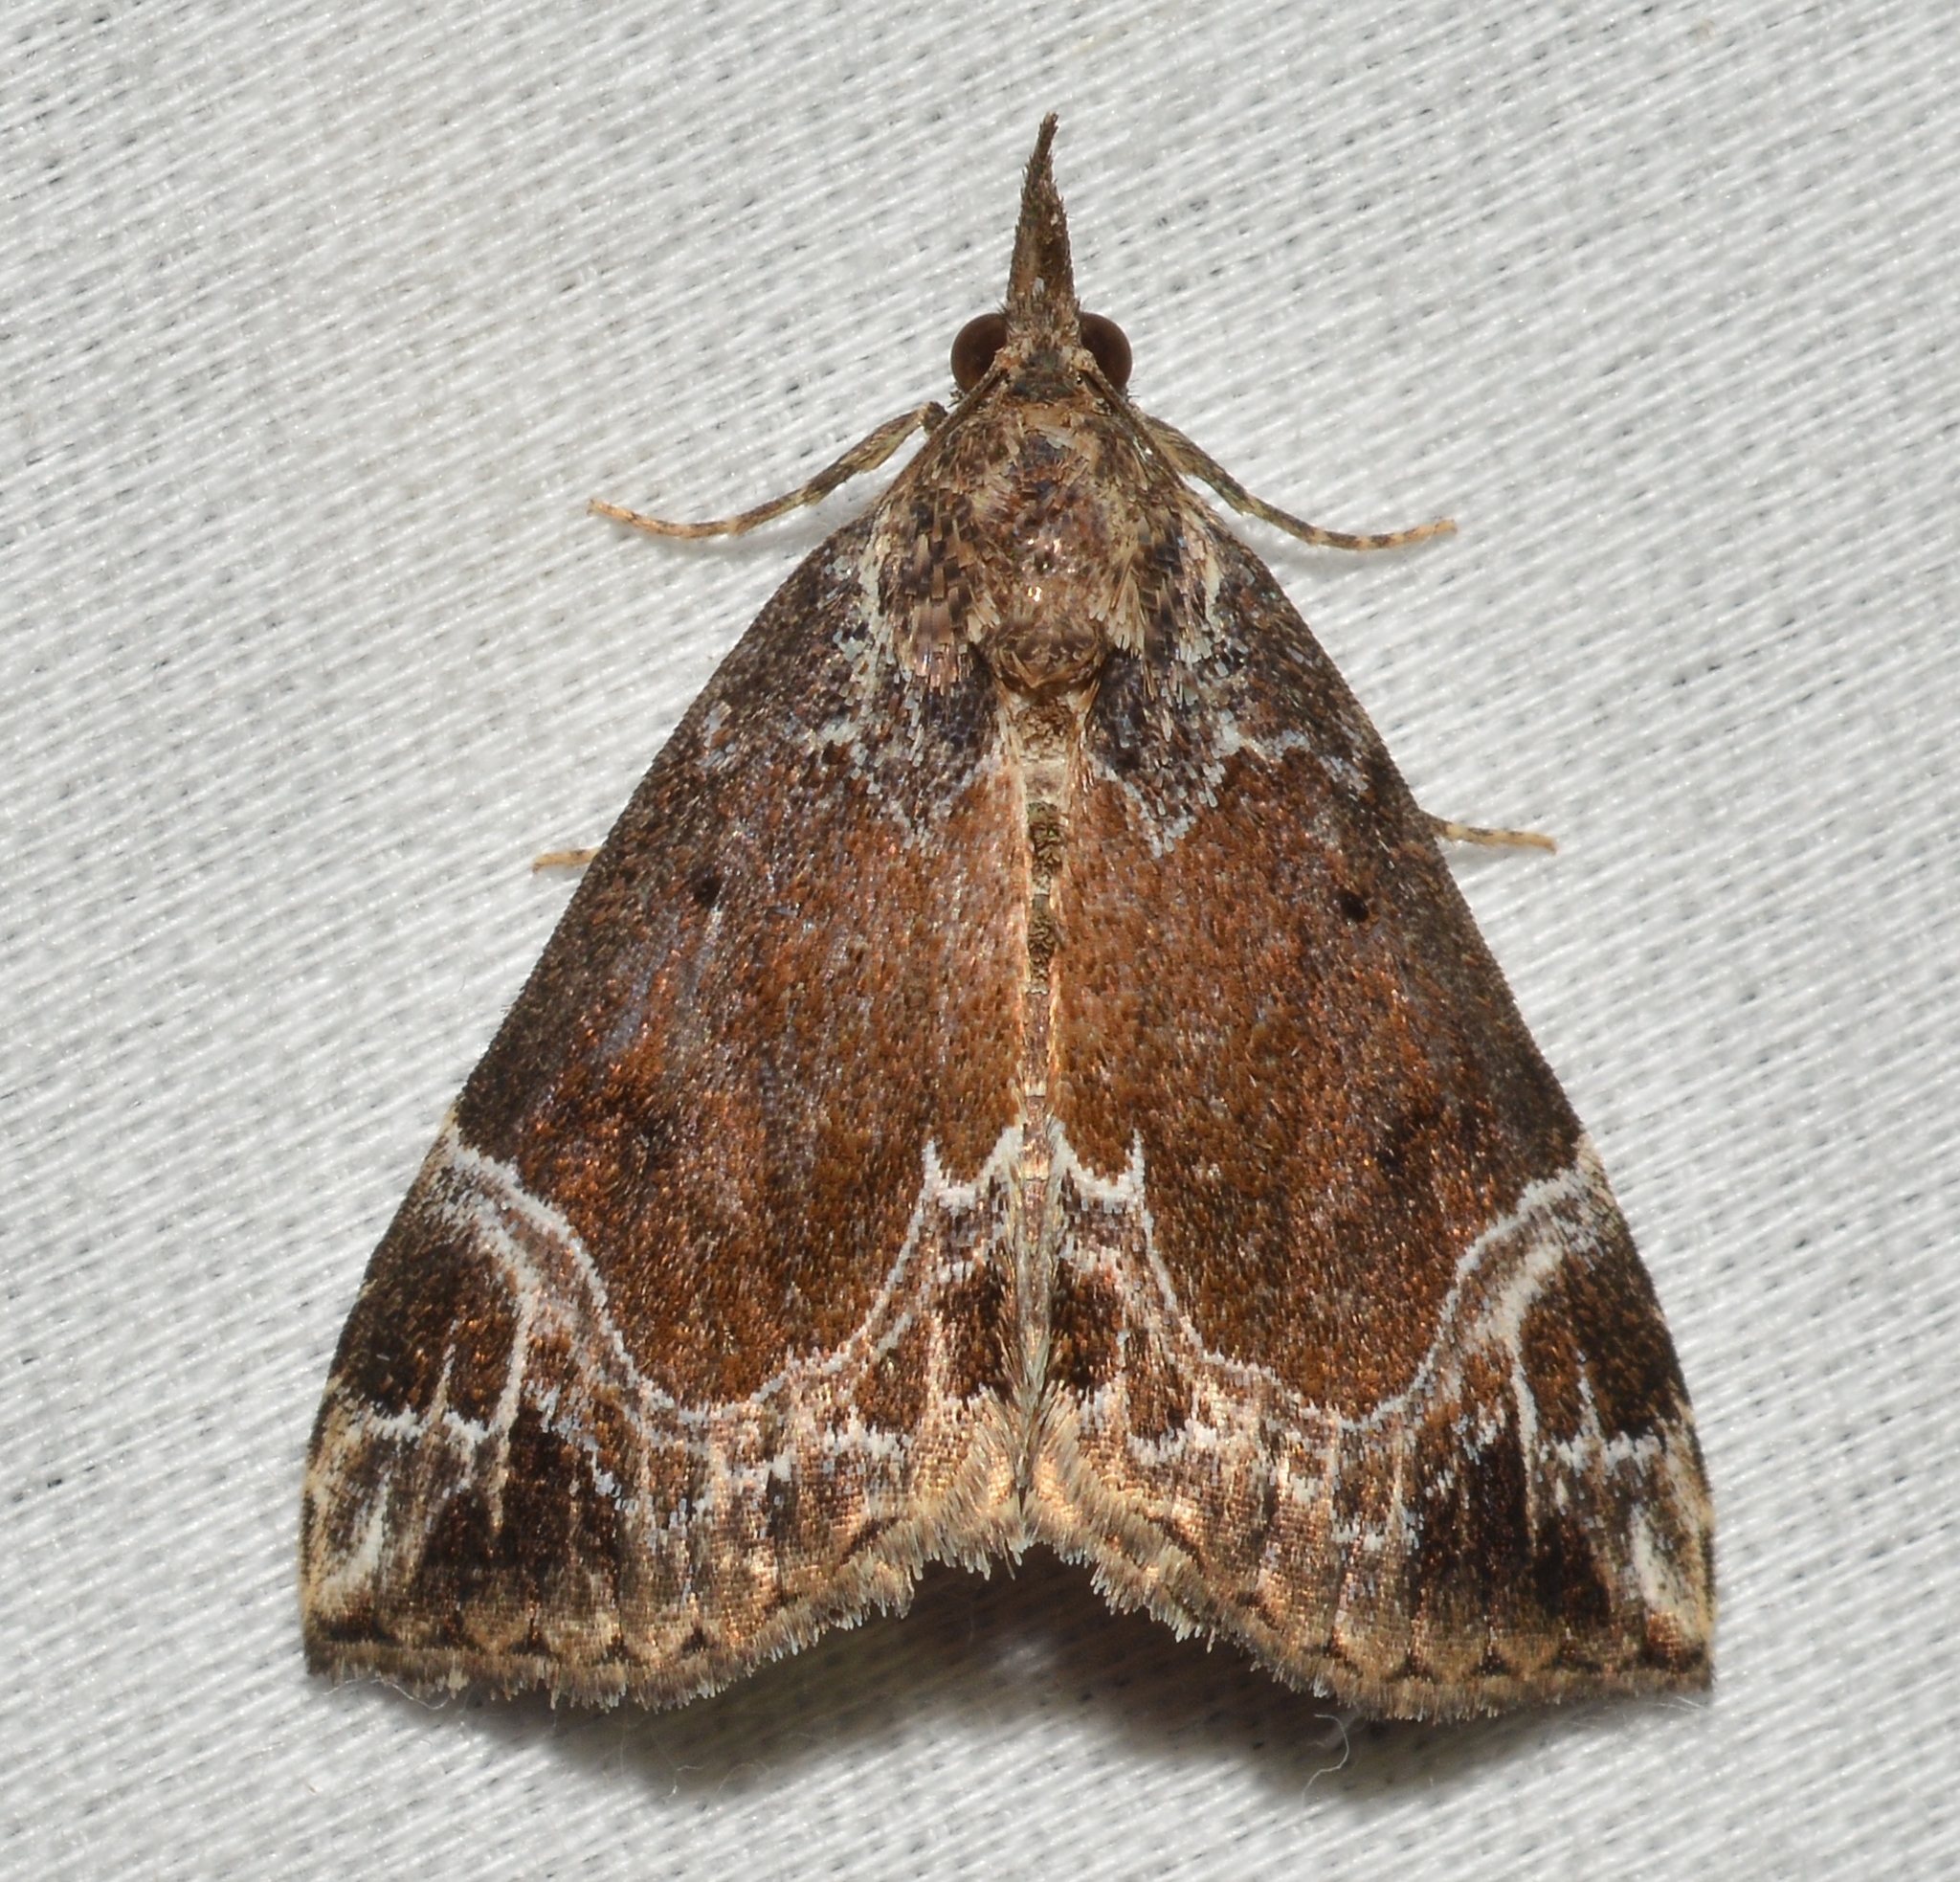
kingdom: Animalia
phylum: Arthropoda
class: Insecta
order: Lepidoptera
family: Erebidae
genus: Hypena
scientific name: Hypena abalienalis
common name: White-lined snout
